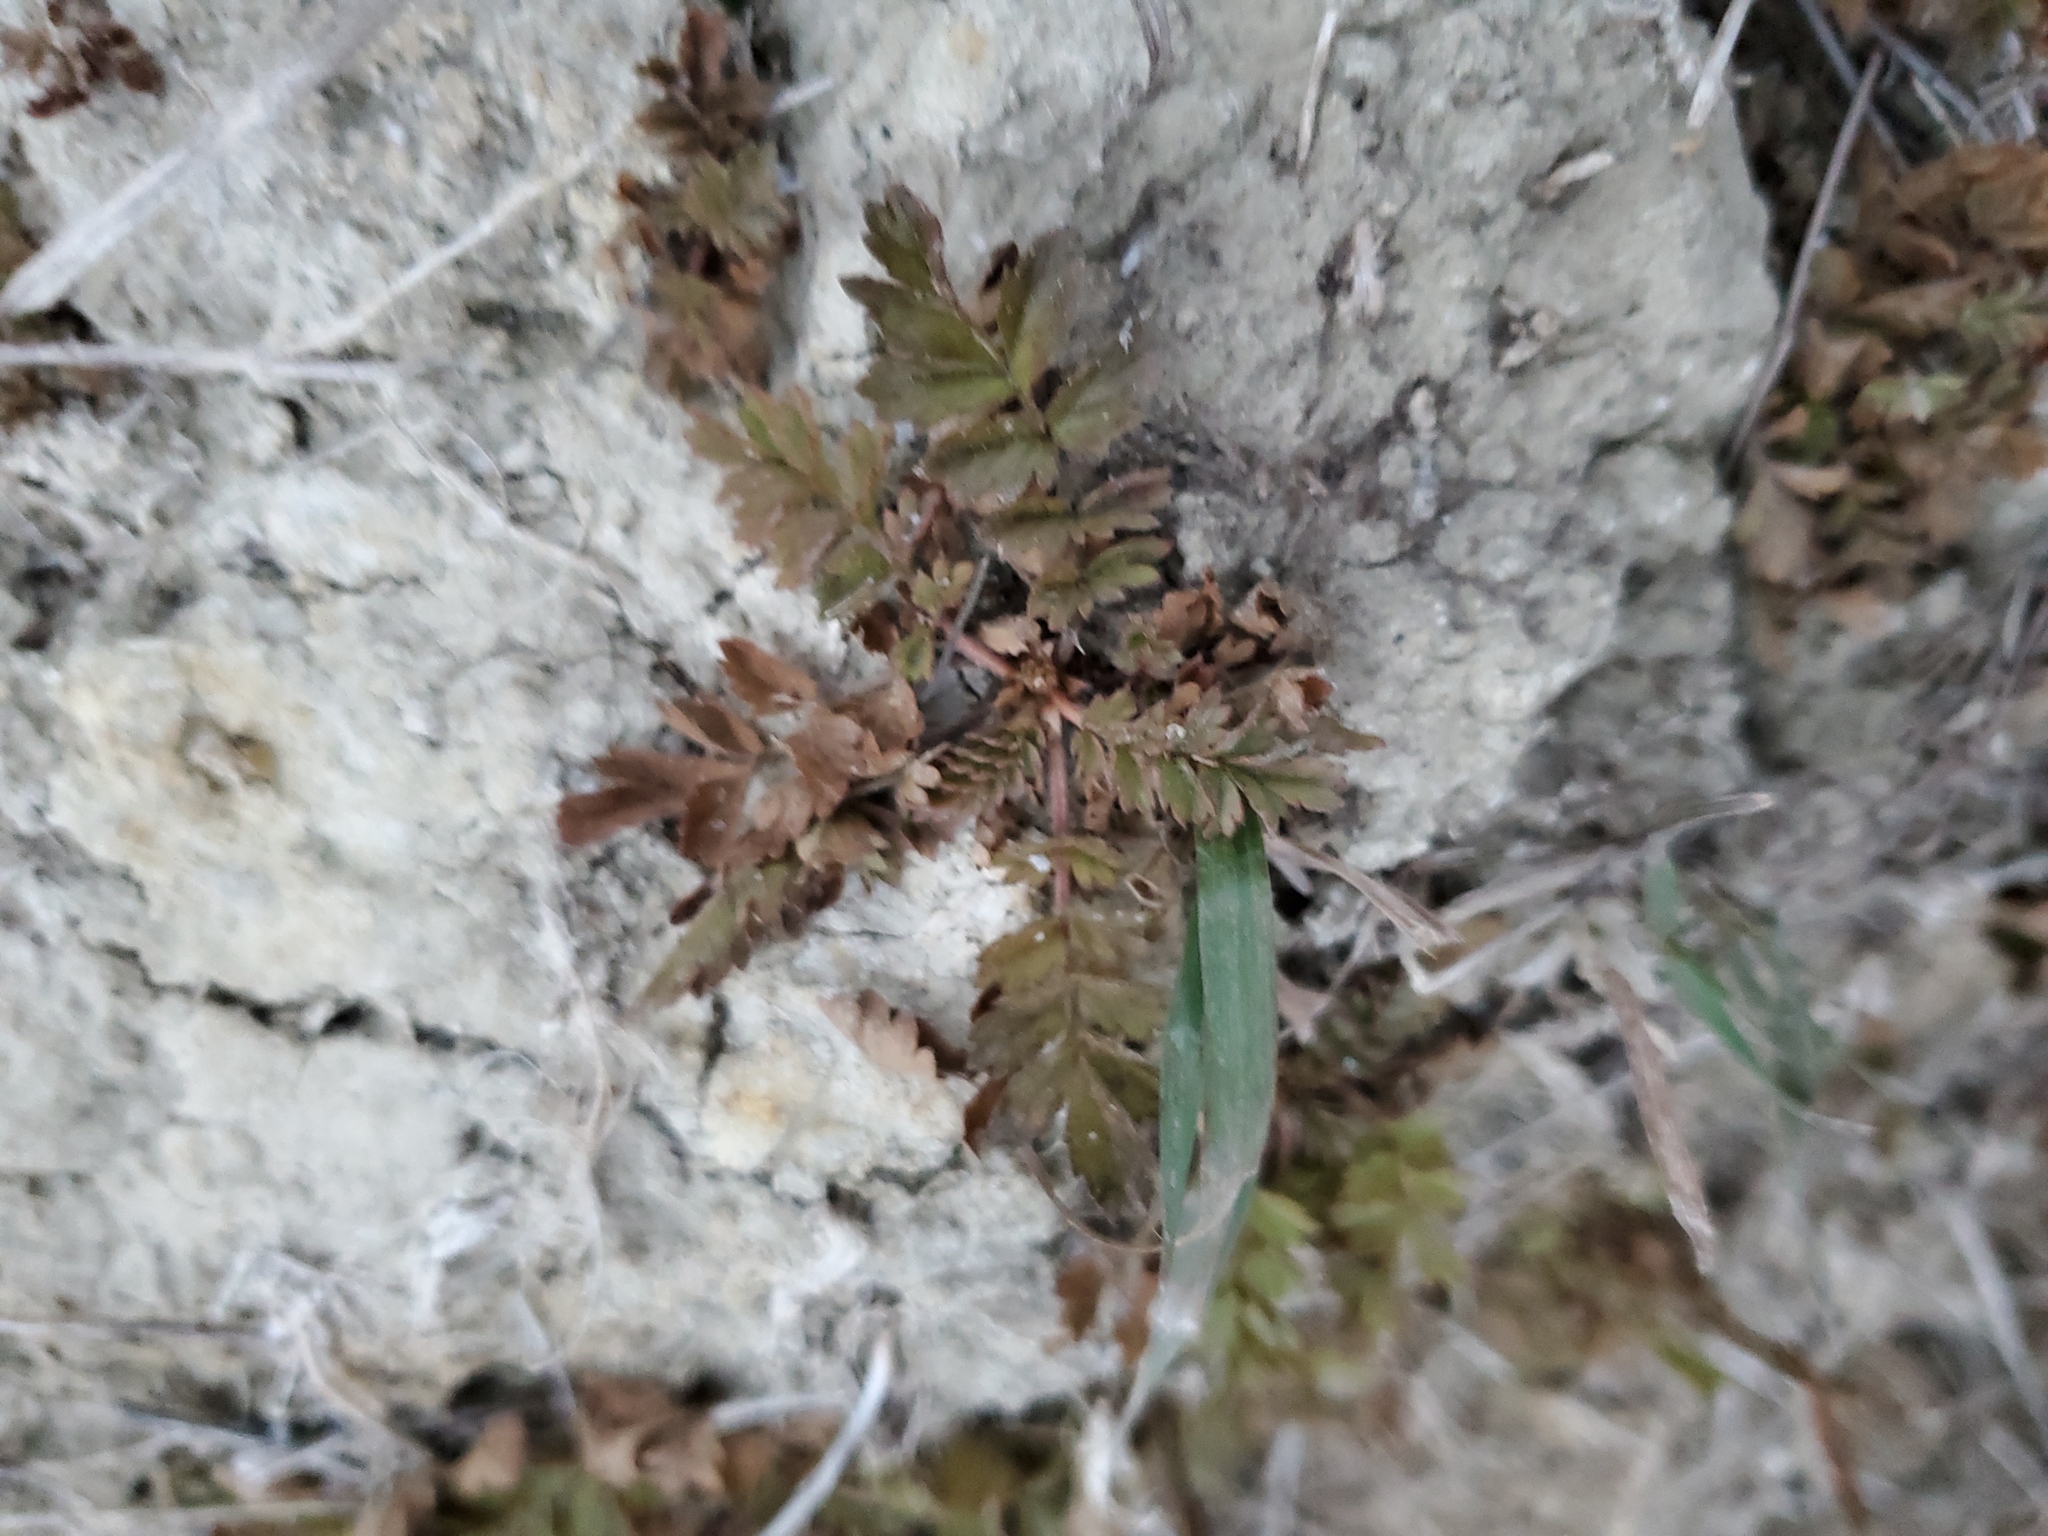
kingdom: Plantae
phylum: Tracheophyta
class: Magnoliopsida
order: Rosales
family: Rosaceae
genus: Argentina
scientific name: Argentina anserina
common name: Common silverweed
